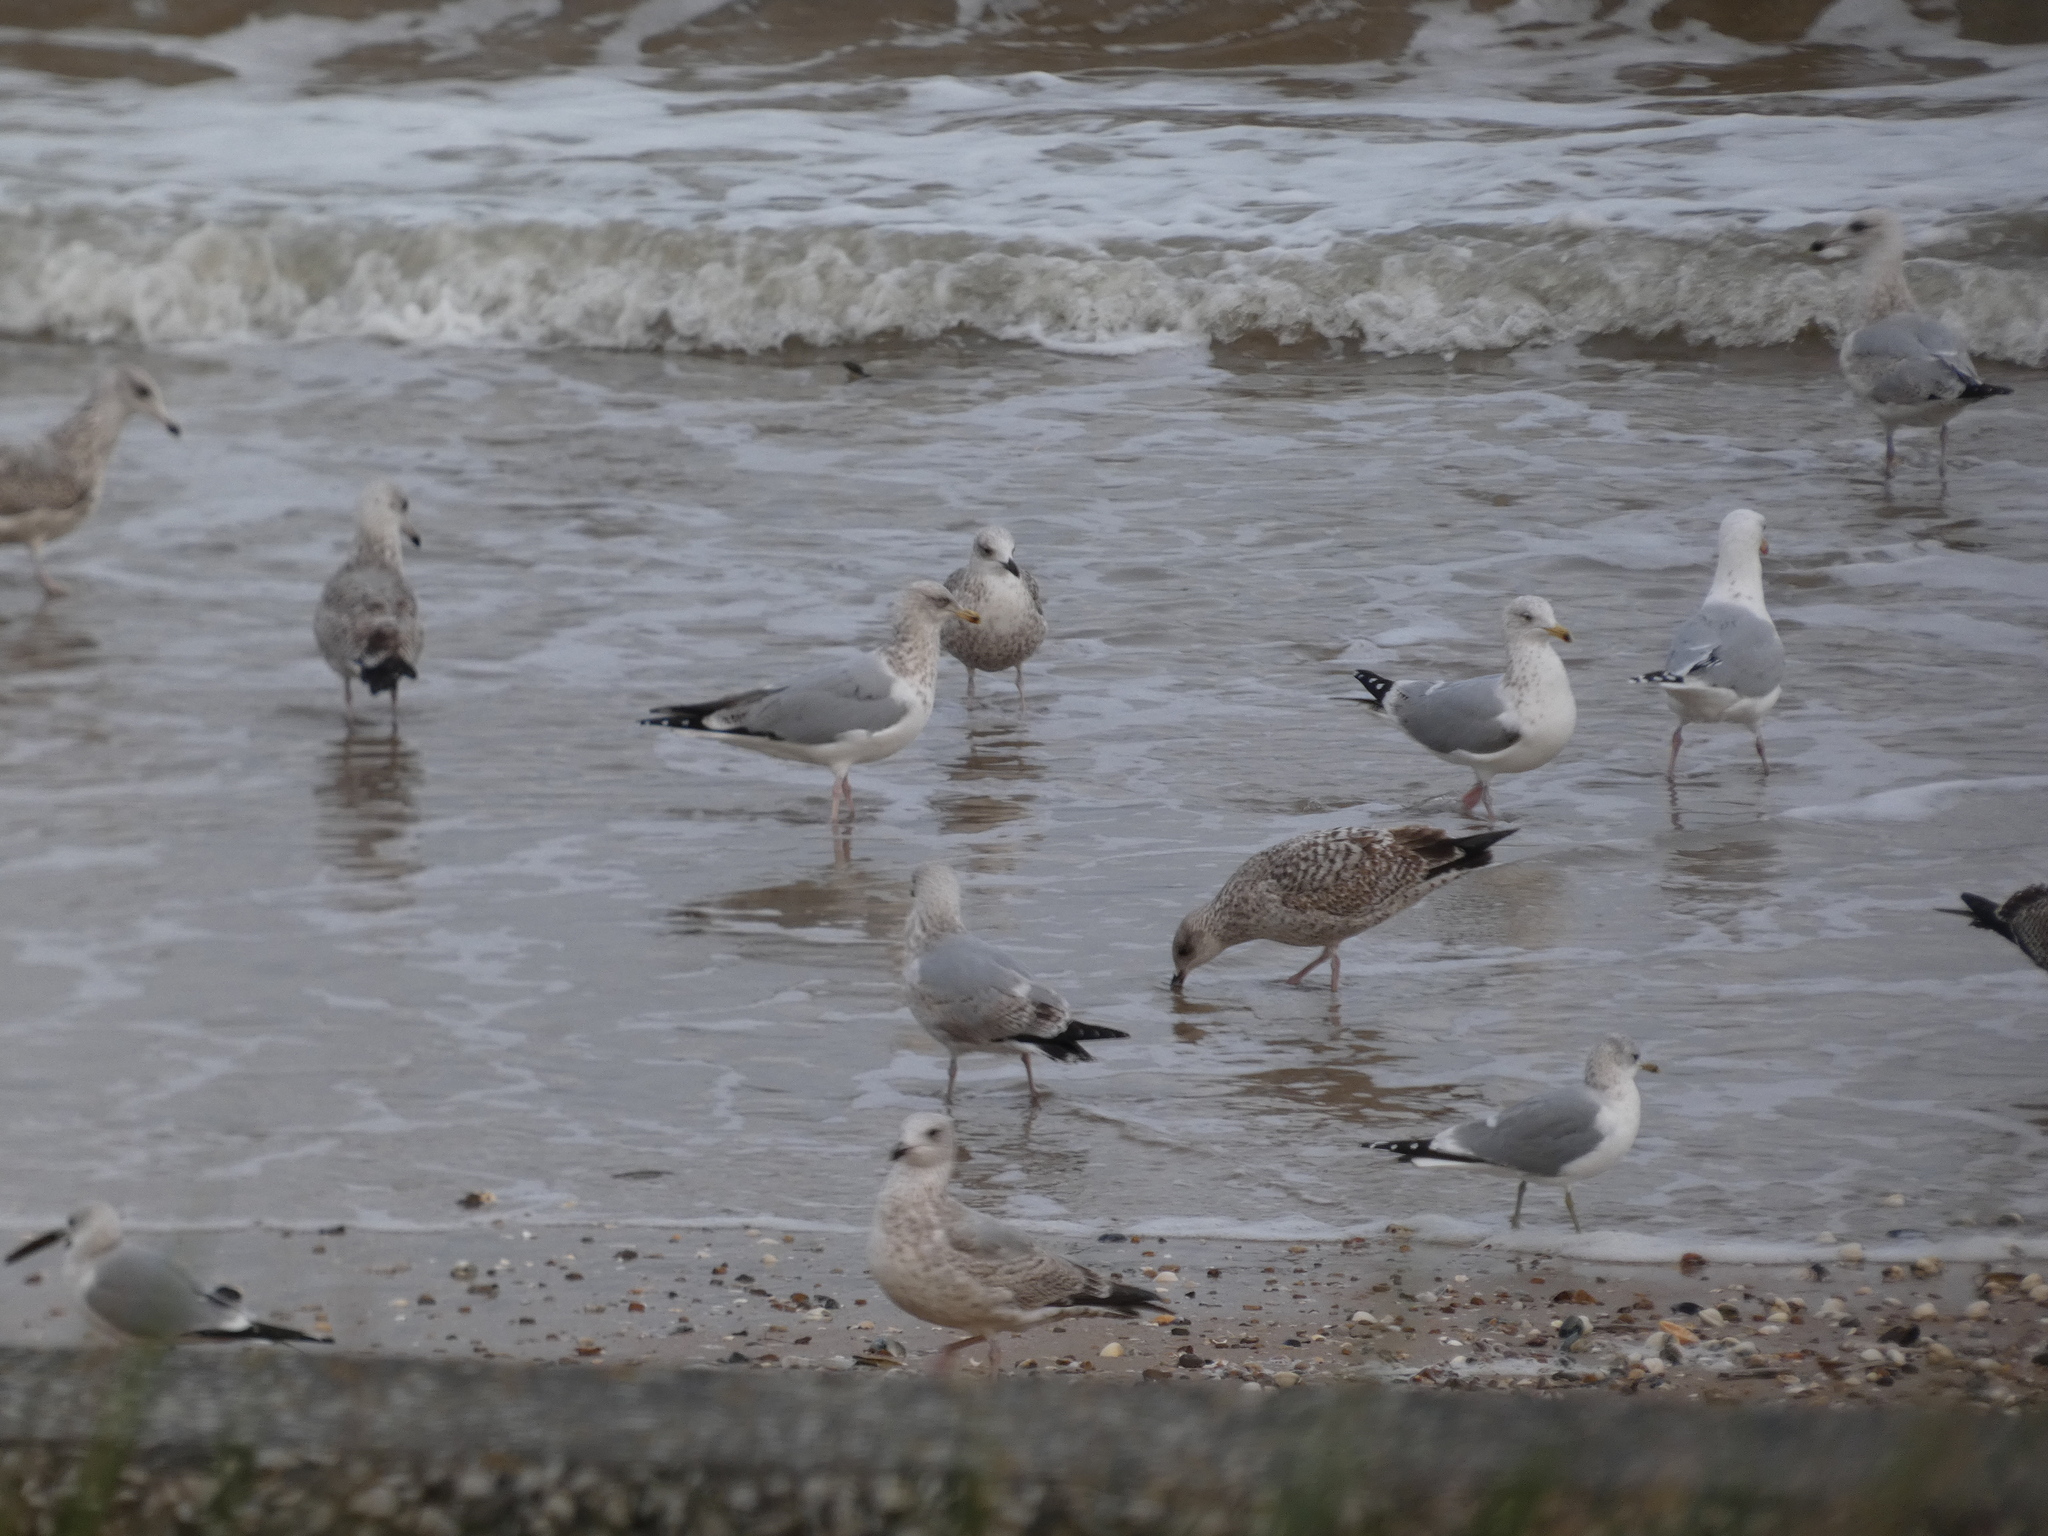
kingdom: Animalia
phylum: Chordata
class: Aves
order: Charadriiformes
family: Laridae
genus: Larus
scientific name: Larus canus
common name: Mew gull
